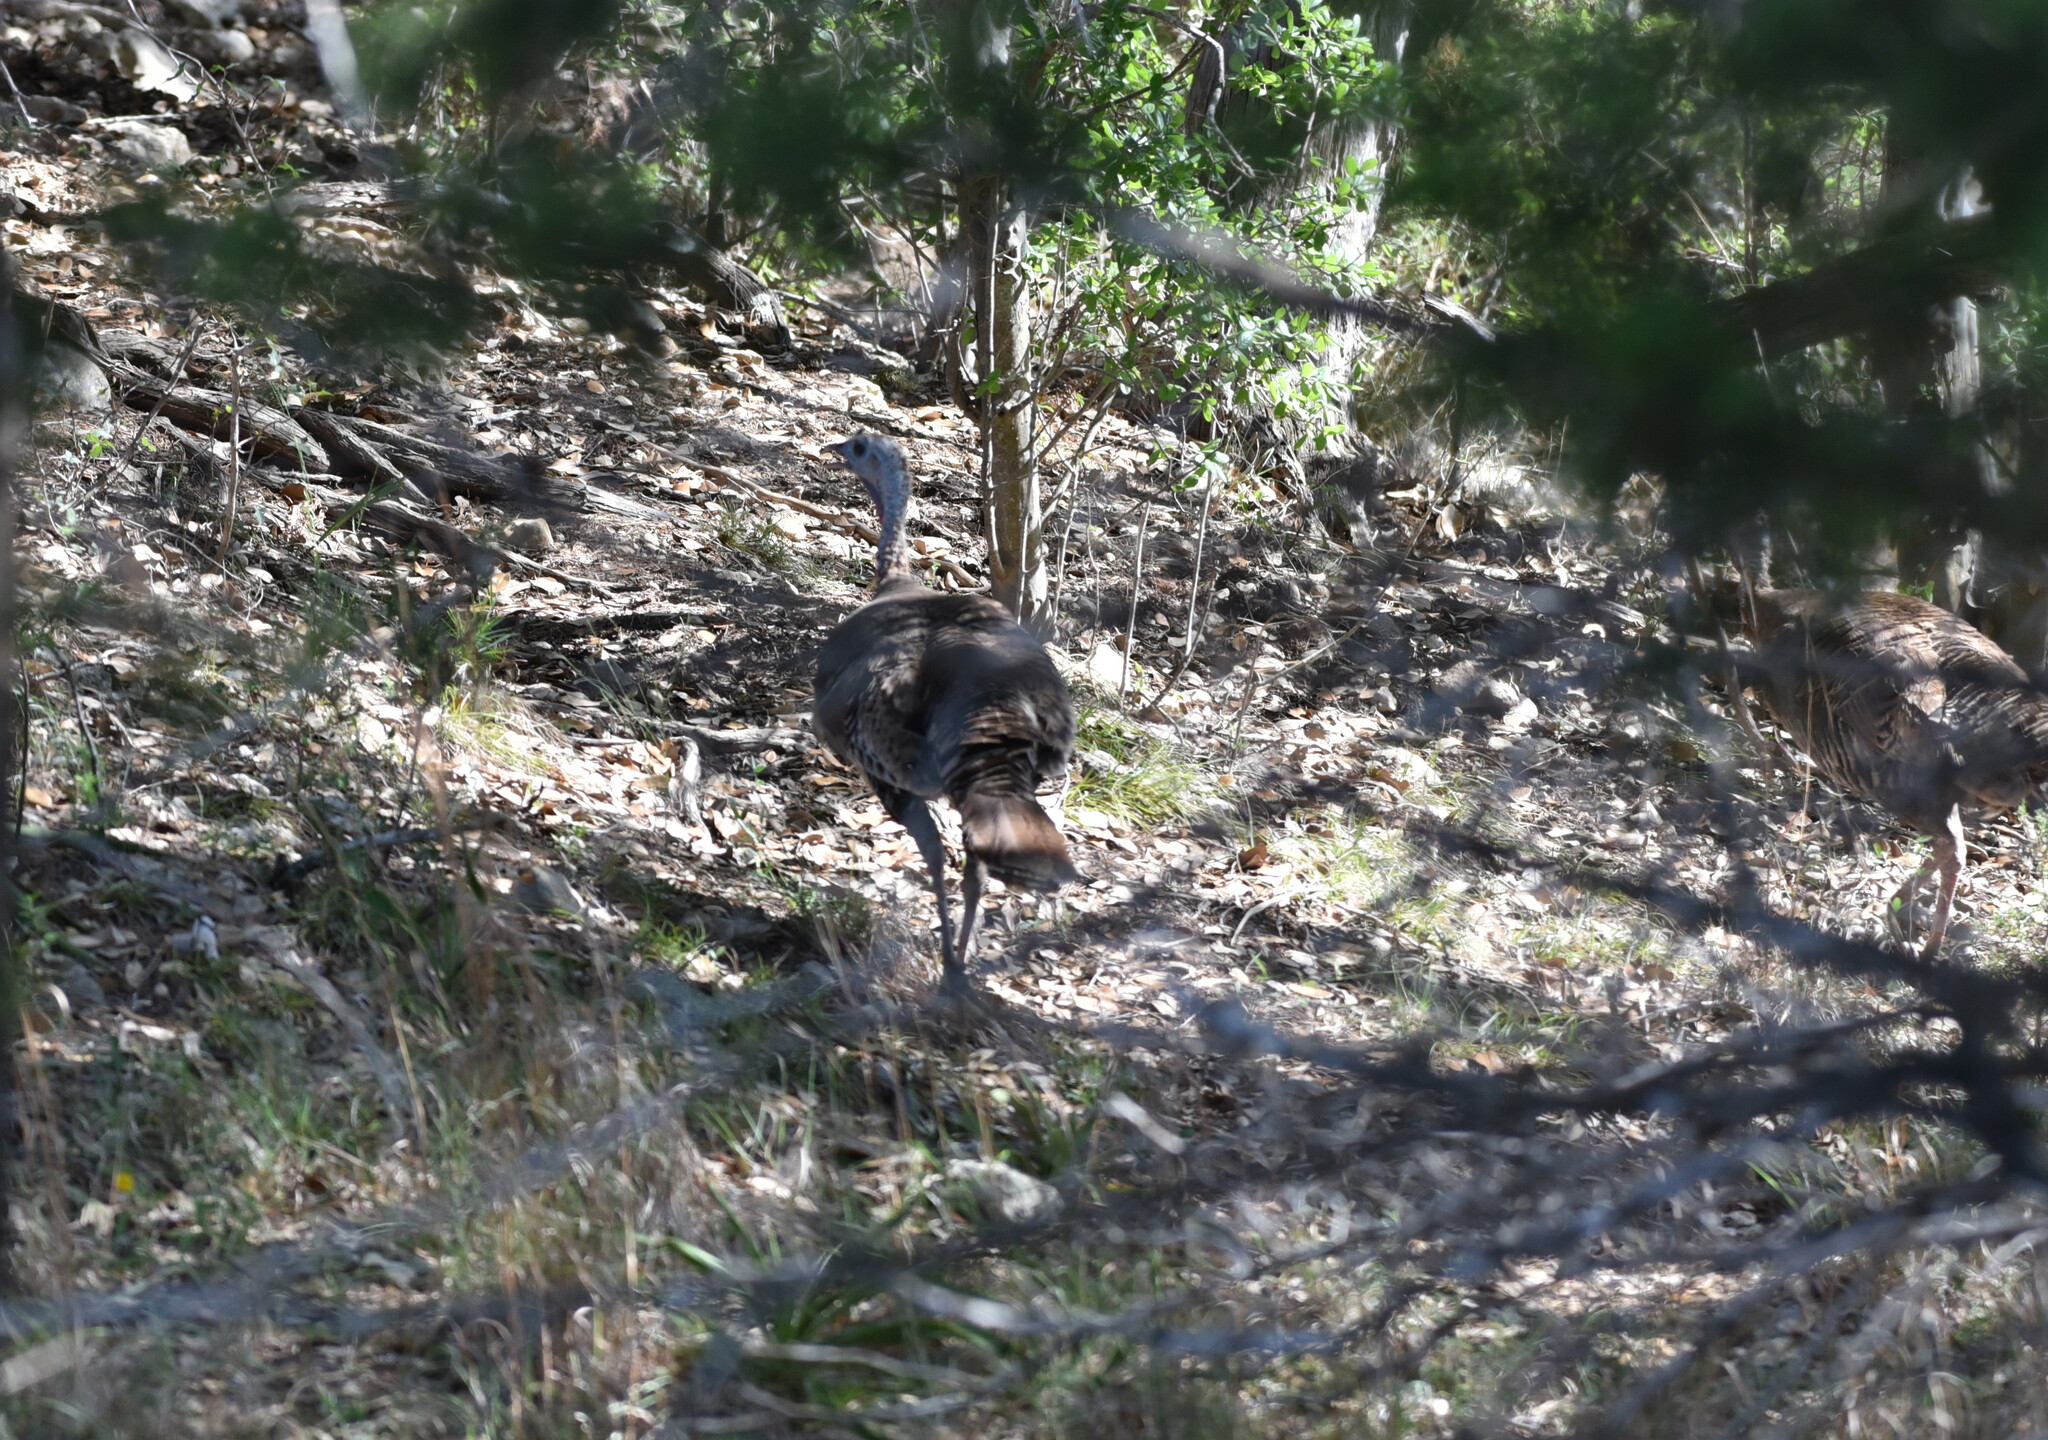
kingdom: Animalia
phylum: Chordata
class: Aves
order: Galliformes
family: Phasianidae
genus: Meleagris
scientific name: Meleagris gallopavo
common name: Wild turkey
